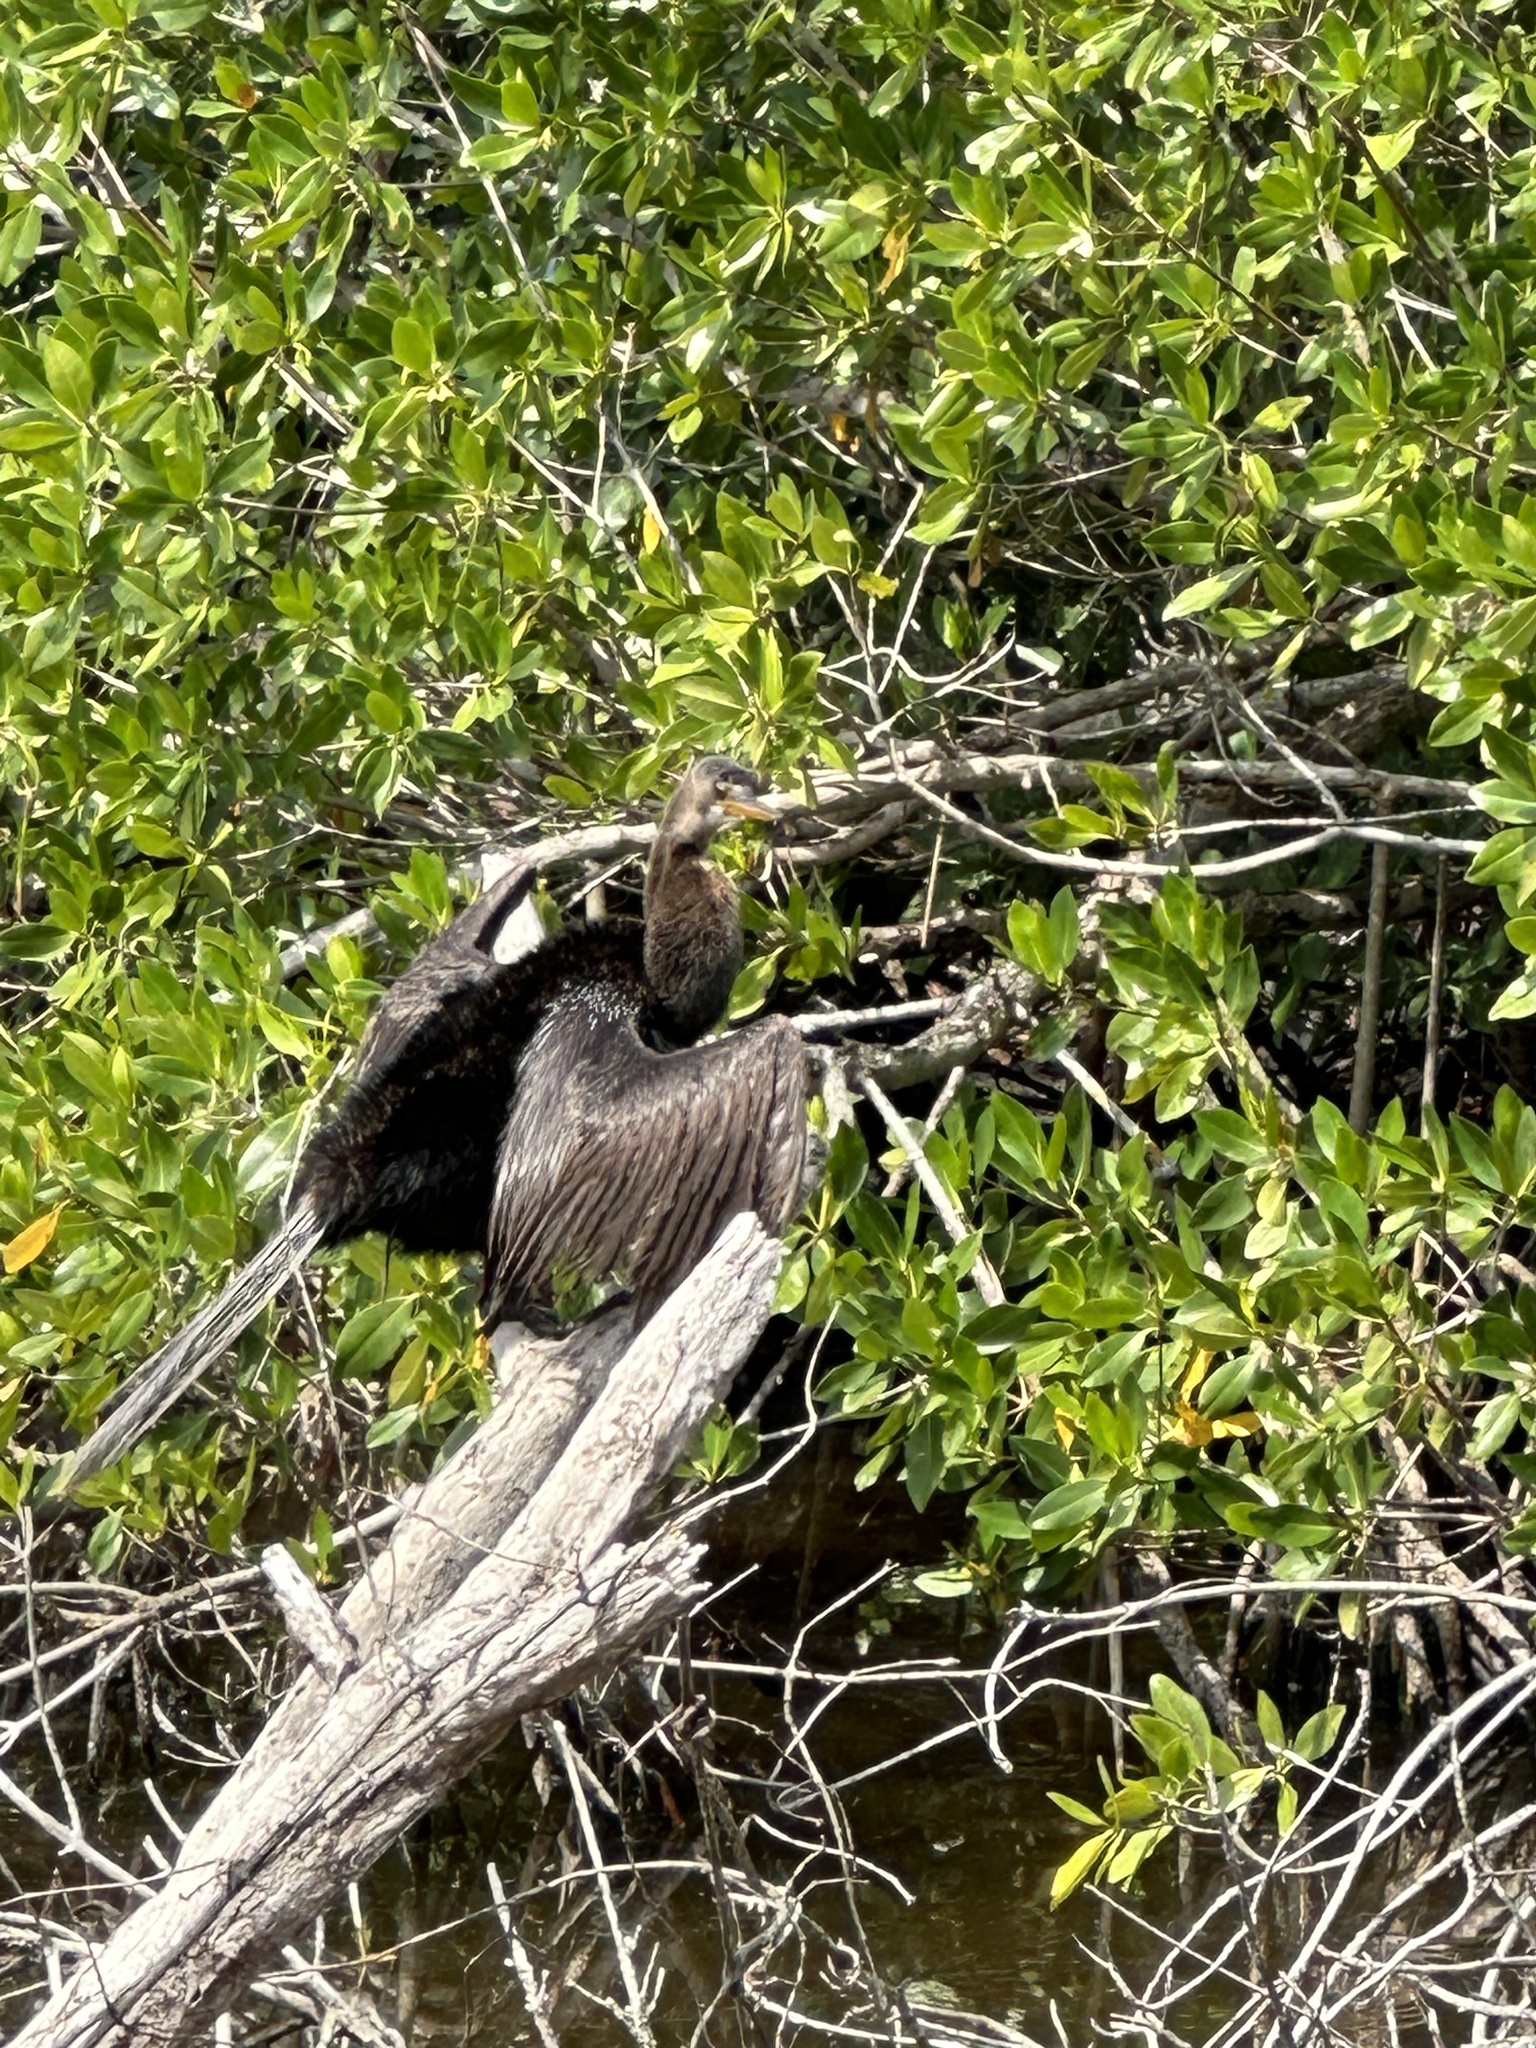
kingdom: Animalia
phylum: Chordata
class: Aves
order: Suliformes
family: Anhingidae
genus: Anhinga
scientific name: Anhinga anhinga
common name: Anhinga
